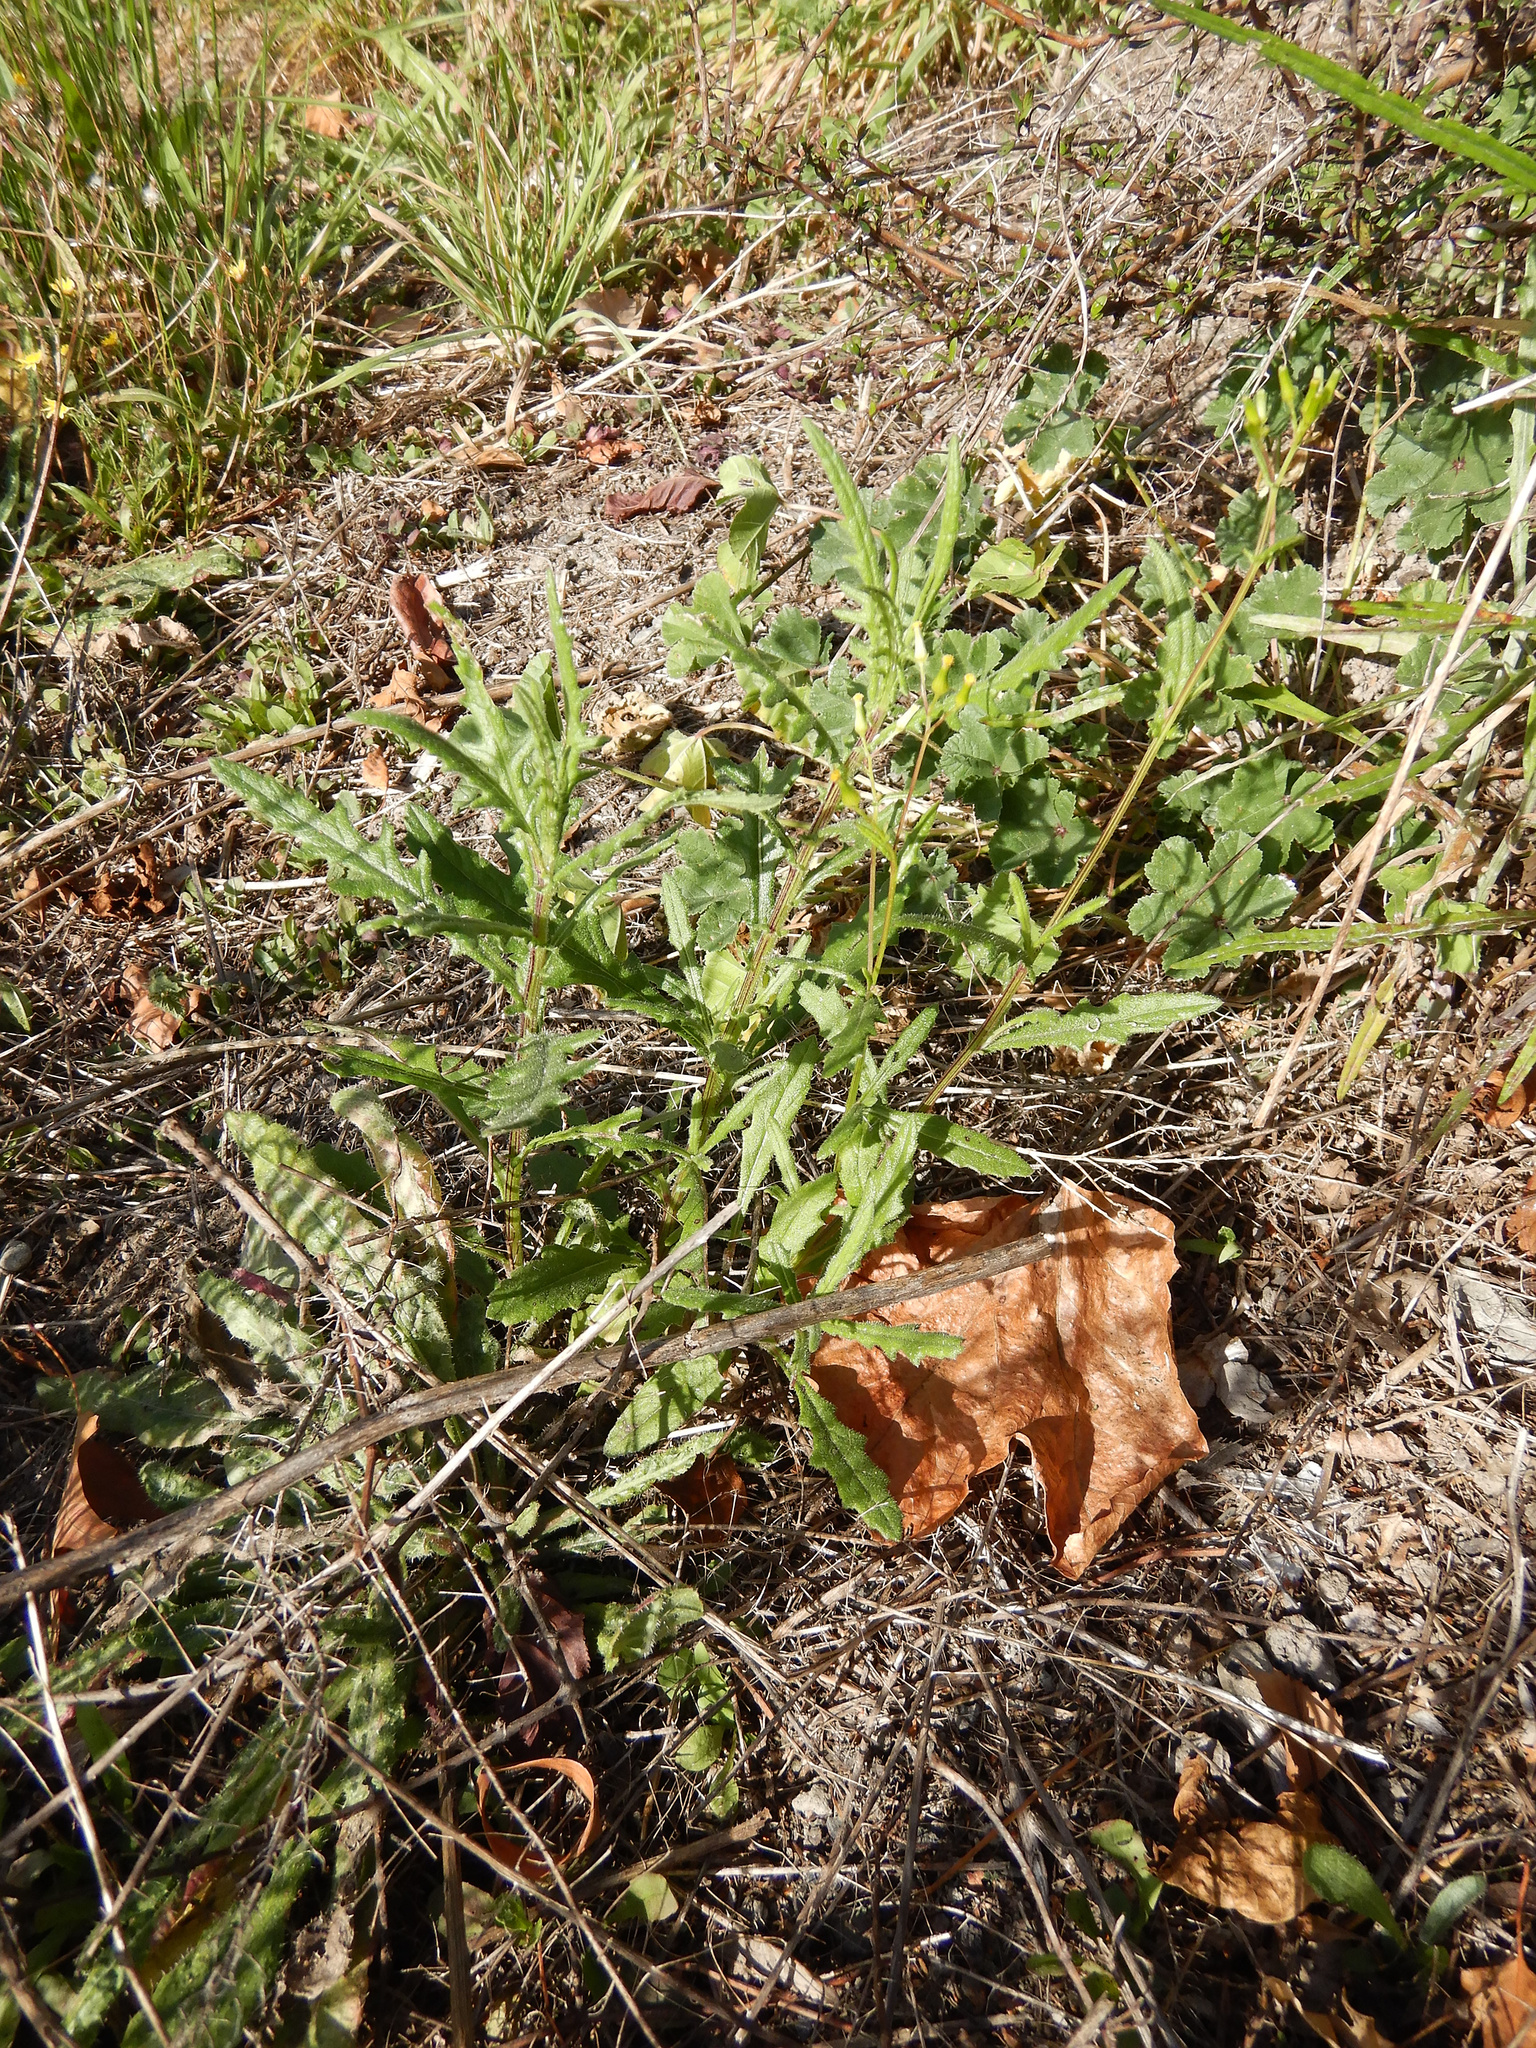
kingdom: Plantae
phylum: Tracheophyta
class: Magnoliopsida
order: Asterales
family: Asteraceae
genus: Senecio
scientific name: Senecio hispidulus
